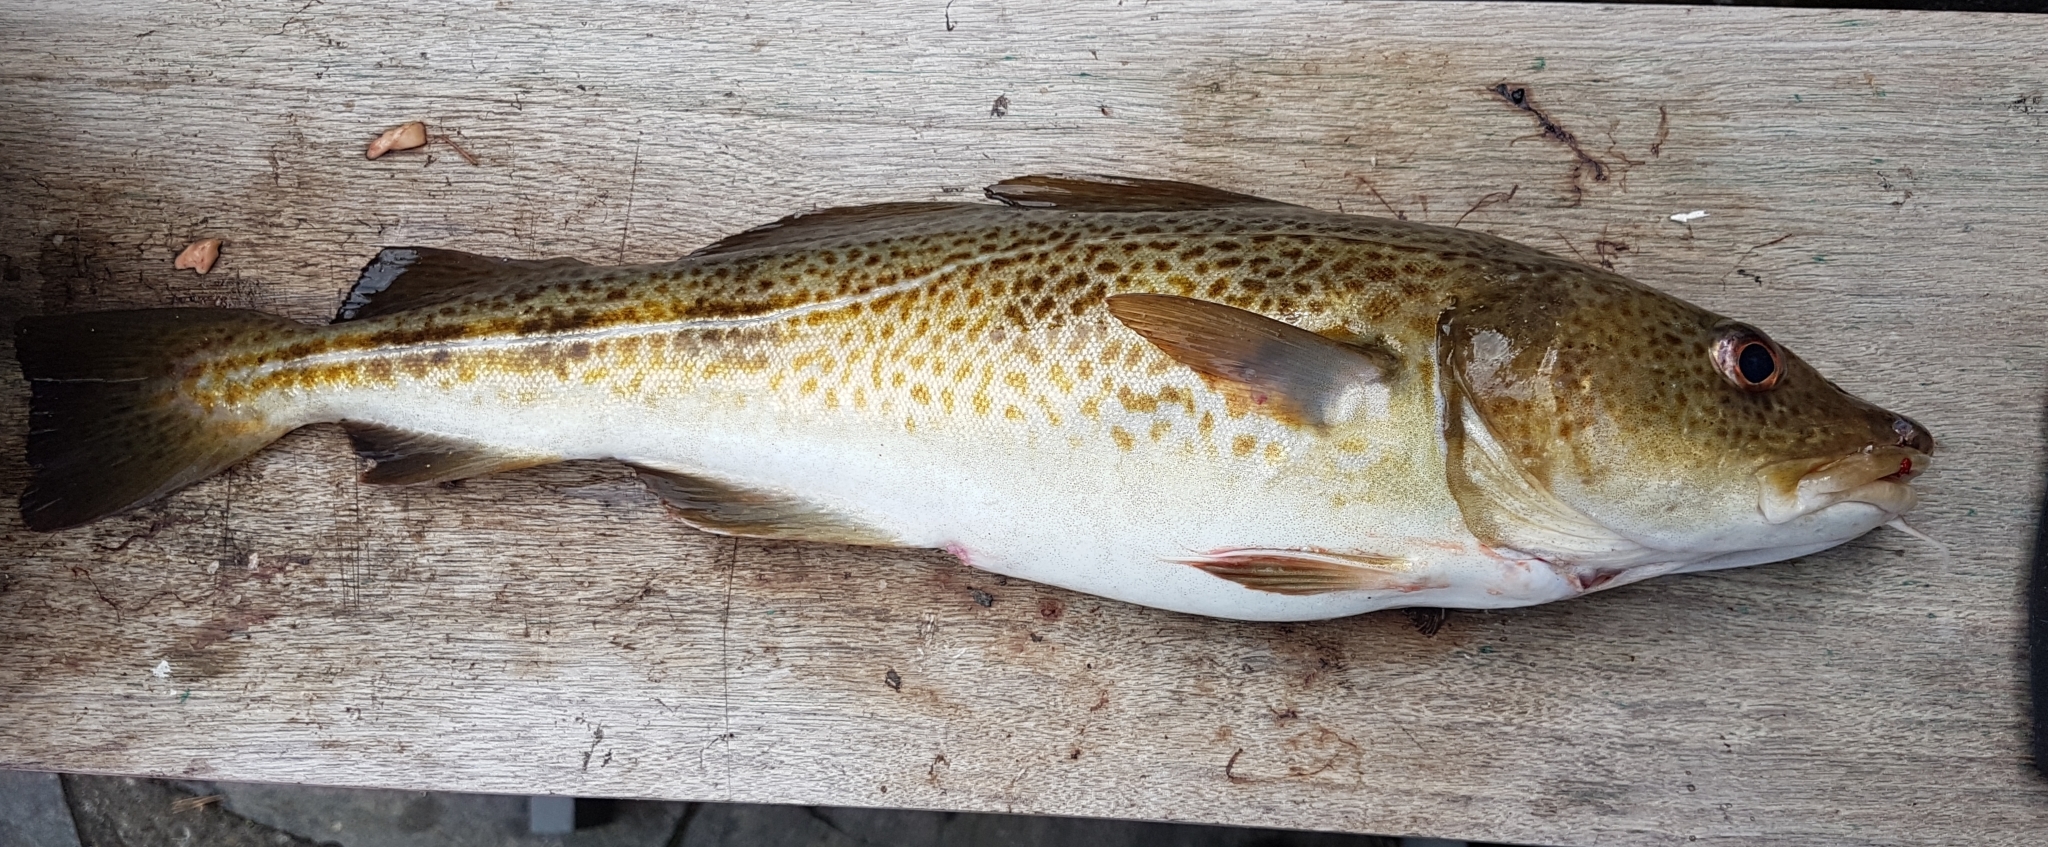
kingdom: Animalia
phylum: Chordata
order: Gadiformes
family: Gadidae
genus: Gadus
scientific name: Gadus morhua
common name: Atlantic cod
